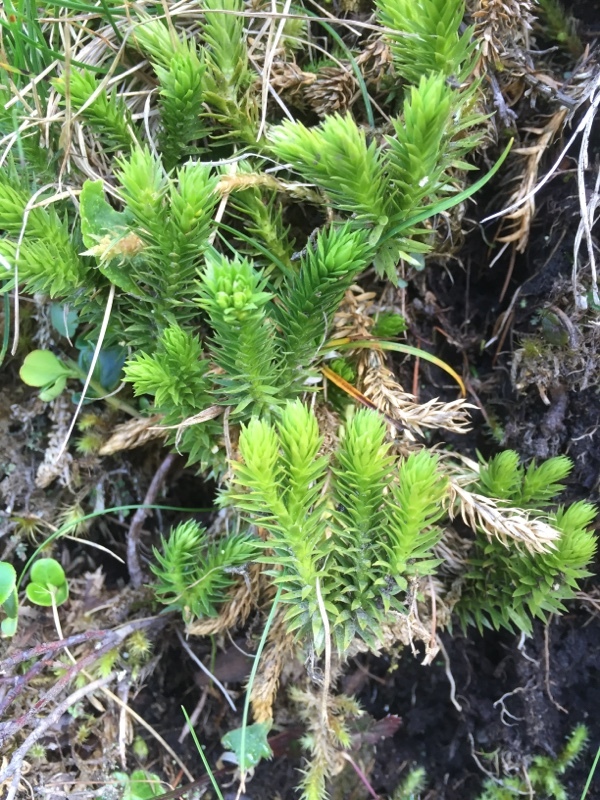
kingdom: Plantae
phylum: Tracheophyta
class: Lycopodiopsida
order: Lycopodiales
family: Lycopodiaceae
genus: Spinulum
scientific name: Spinulum annotinum
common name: Interrupted club-moss
